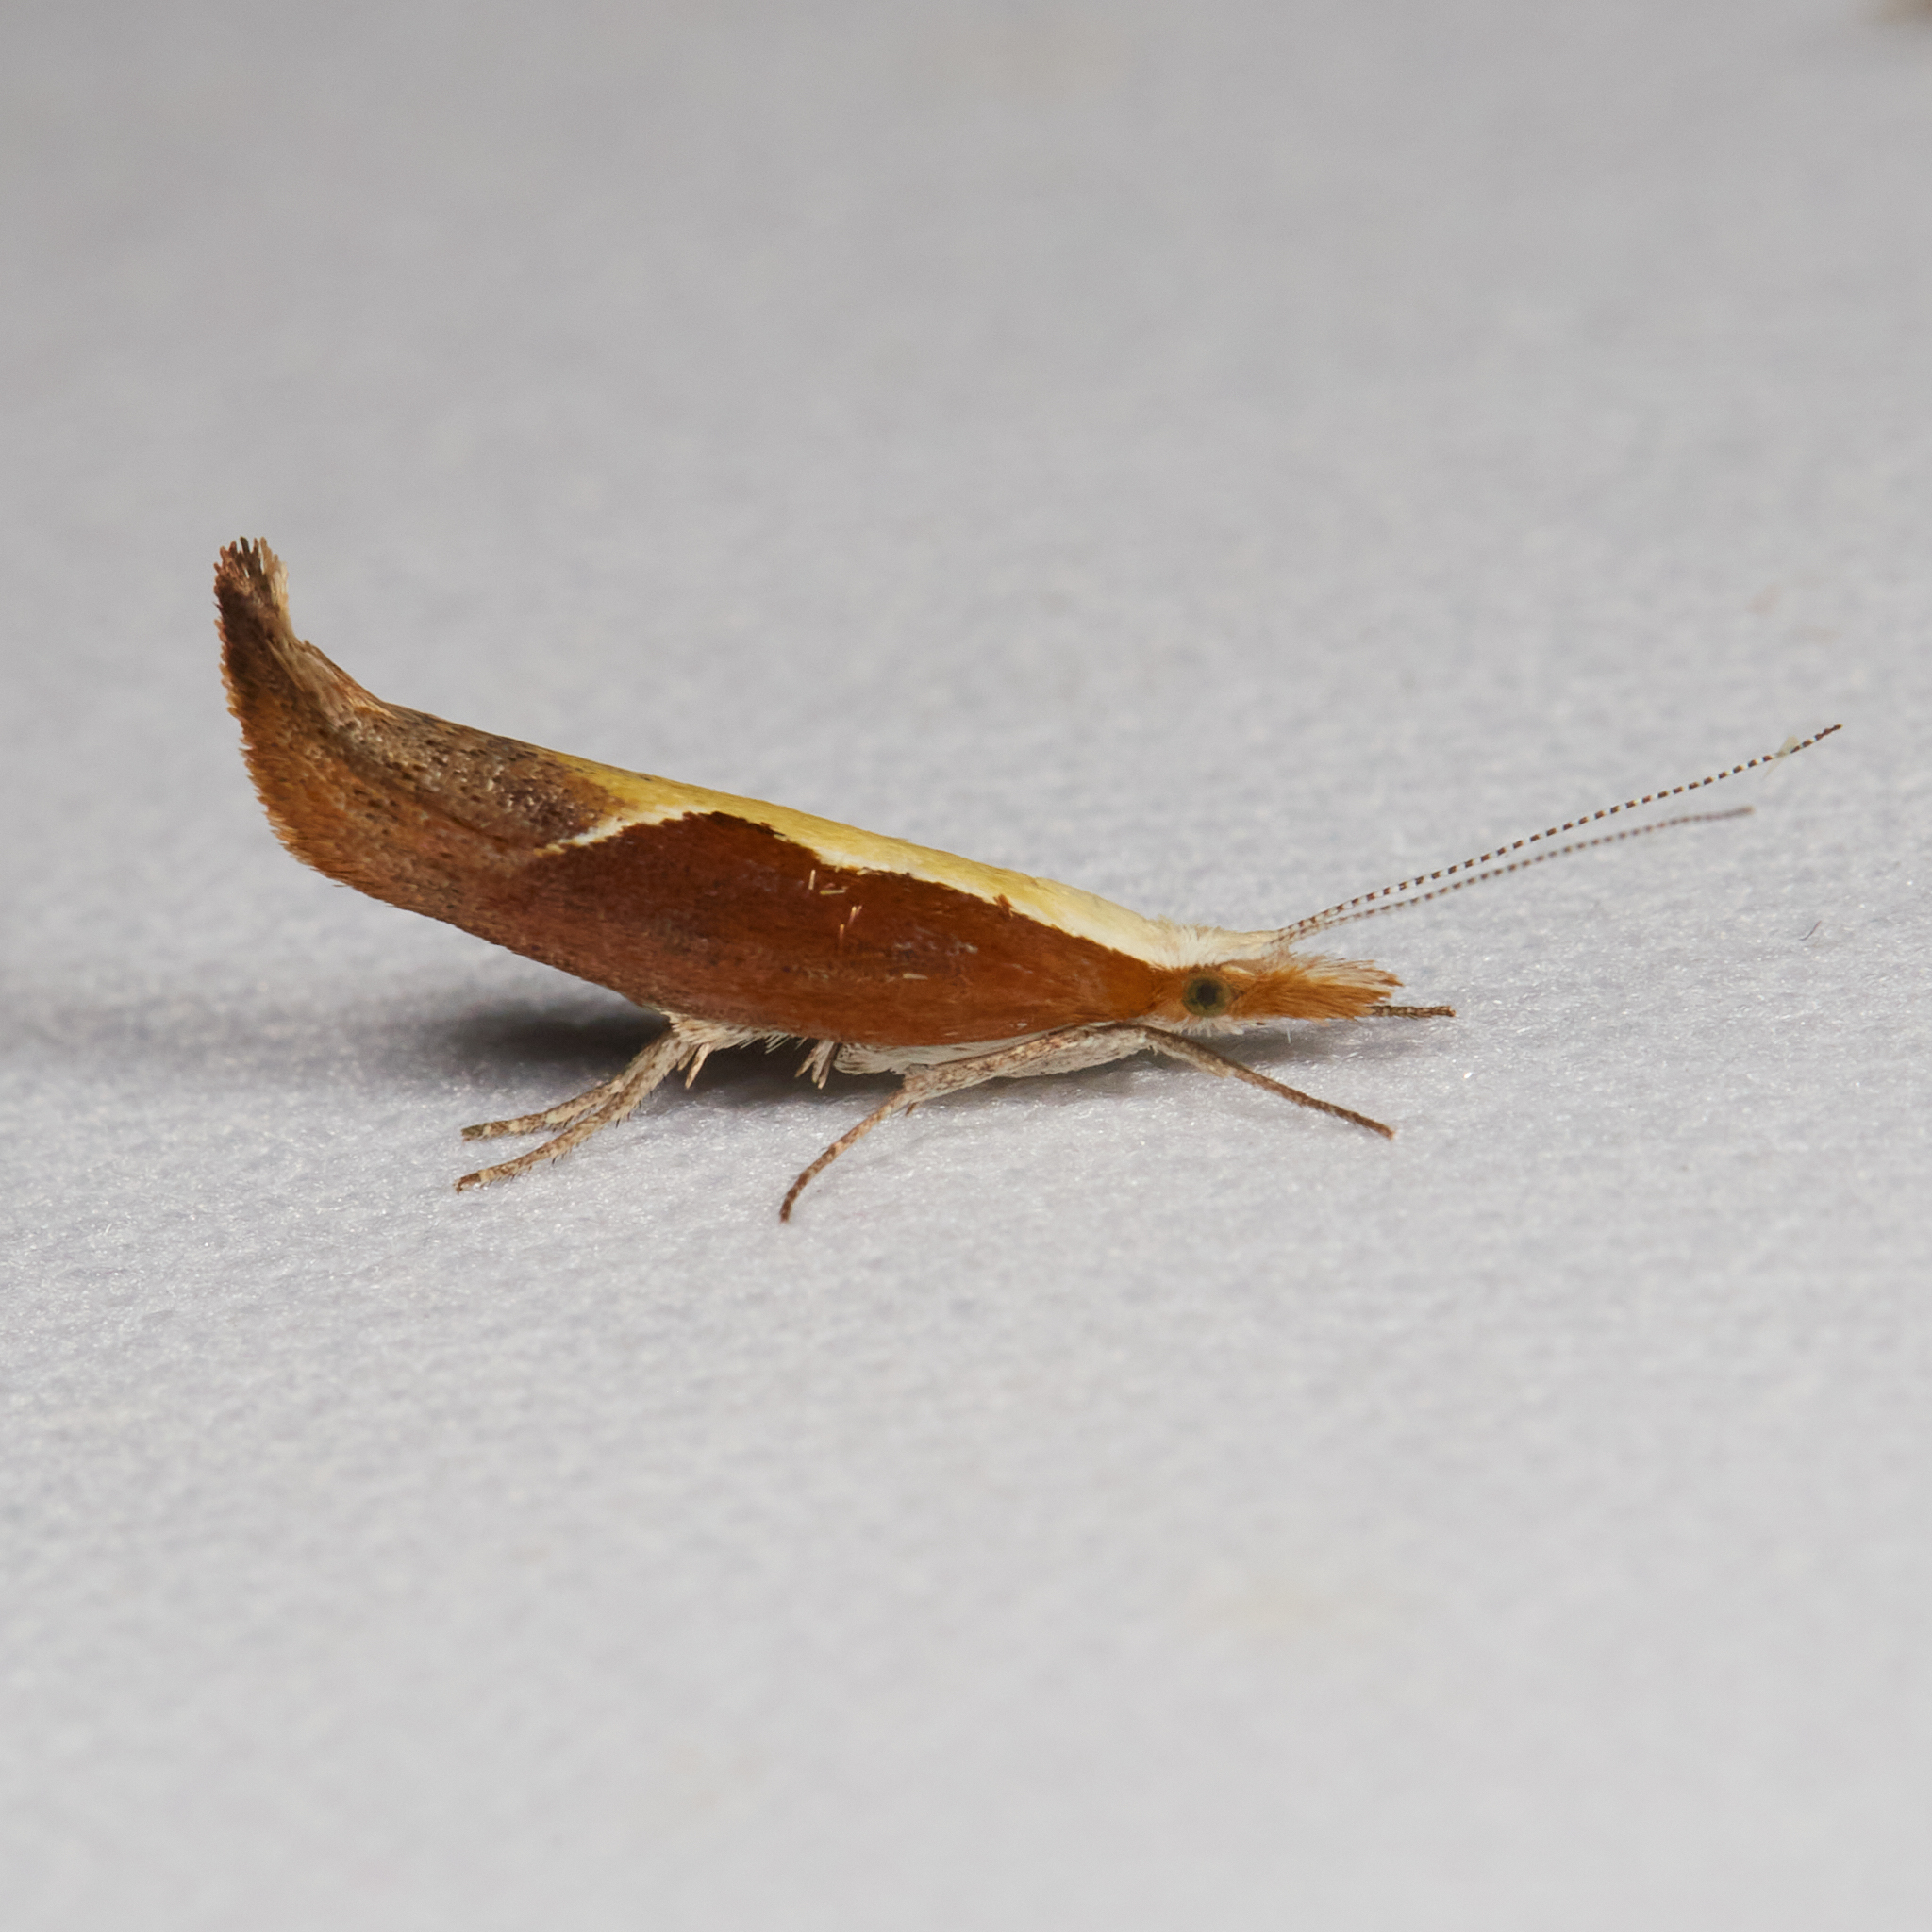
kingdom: Animalia
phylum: Arthropoda
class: Insecta
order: Lepidoptera
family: Ypsolophidae
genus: Ypsolopha
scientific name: Ypsolopha dentella
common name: Honeysuckle moth
